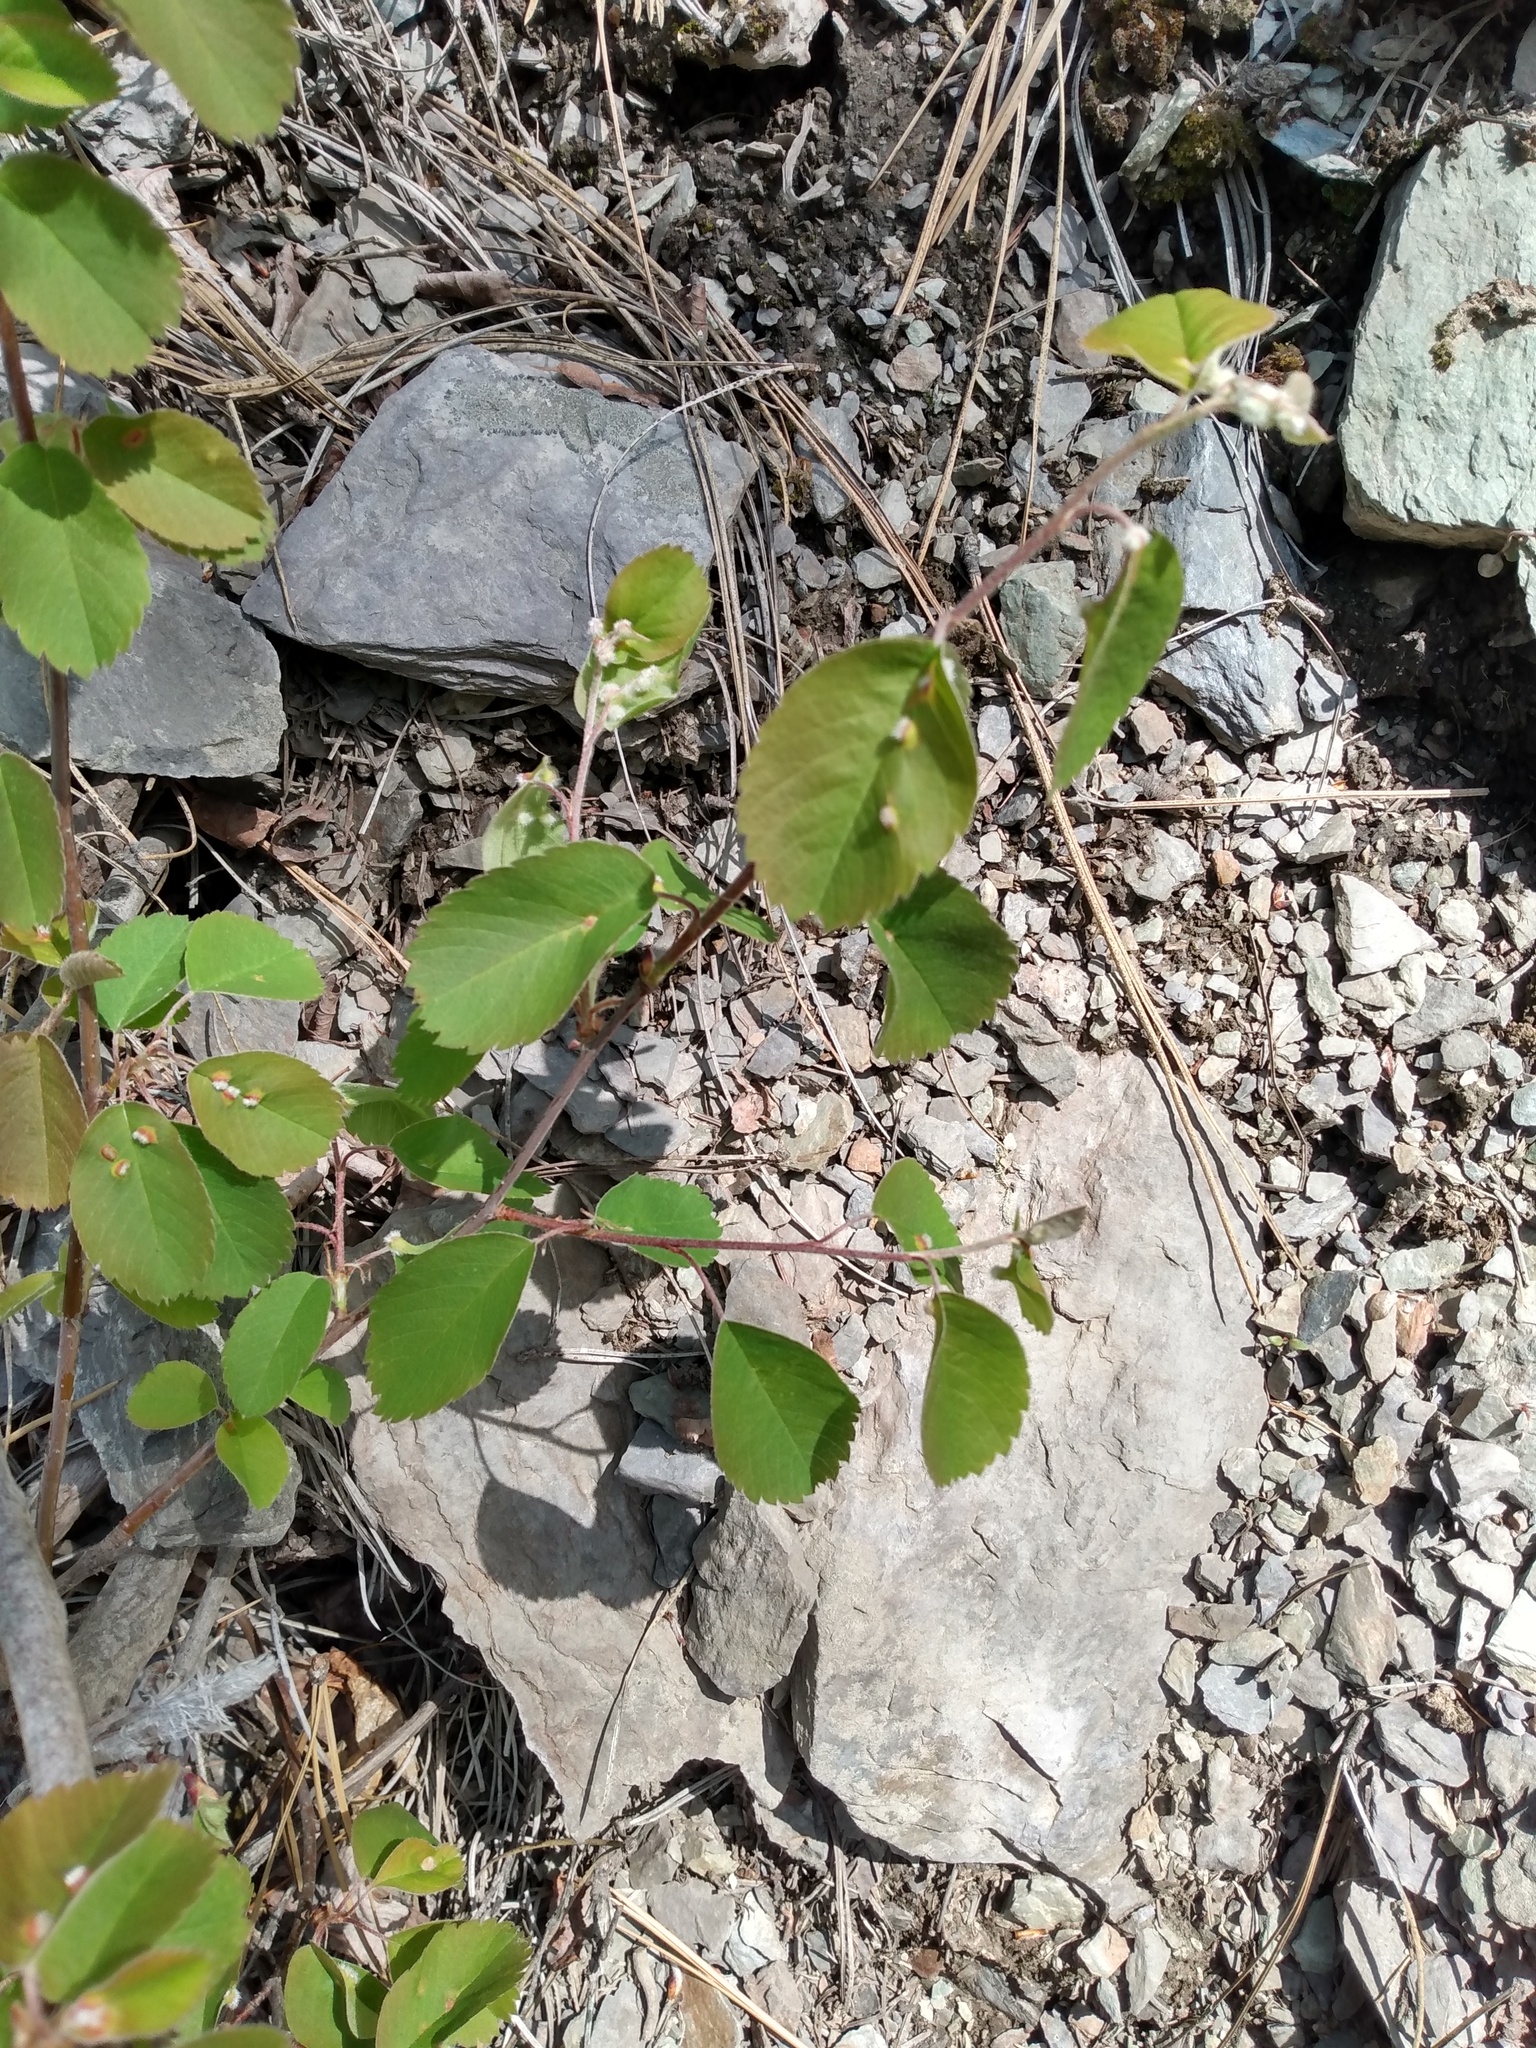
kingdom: Plantae
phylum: Tracheophyta
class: Magnoliopsida
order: Rosales
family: Rosaceae
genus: Amelanchier
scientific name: Amelanchier alnifolia
